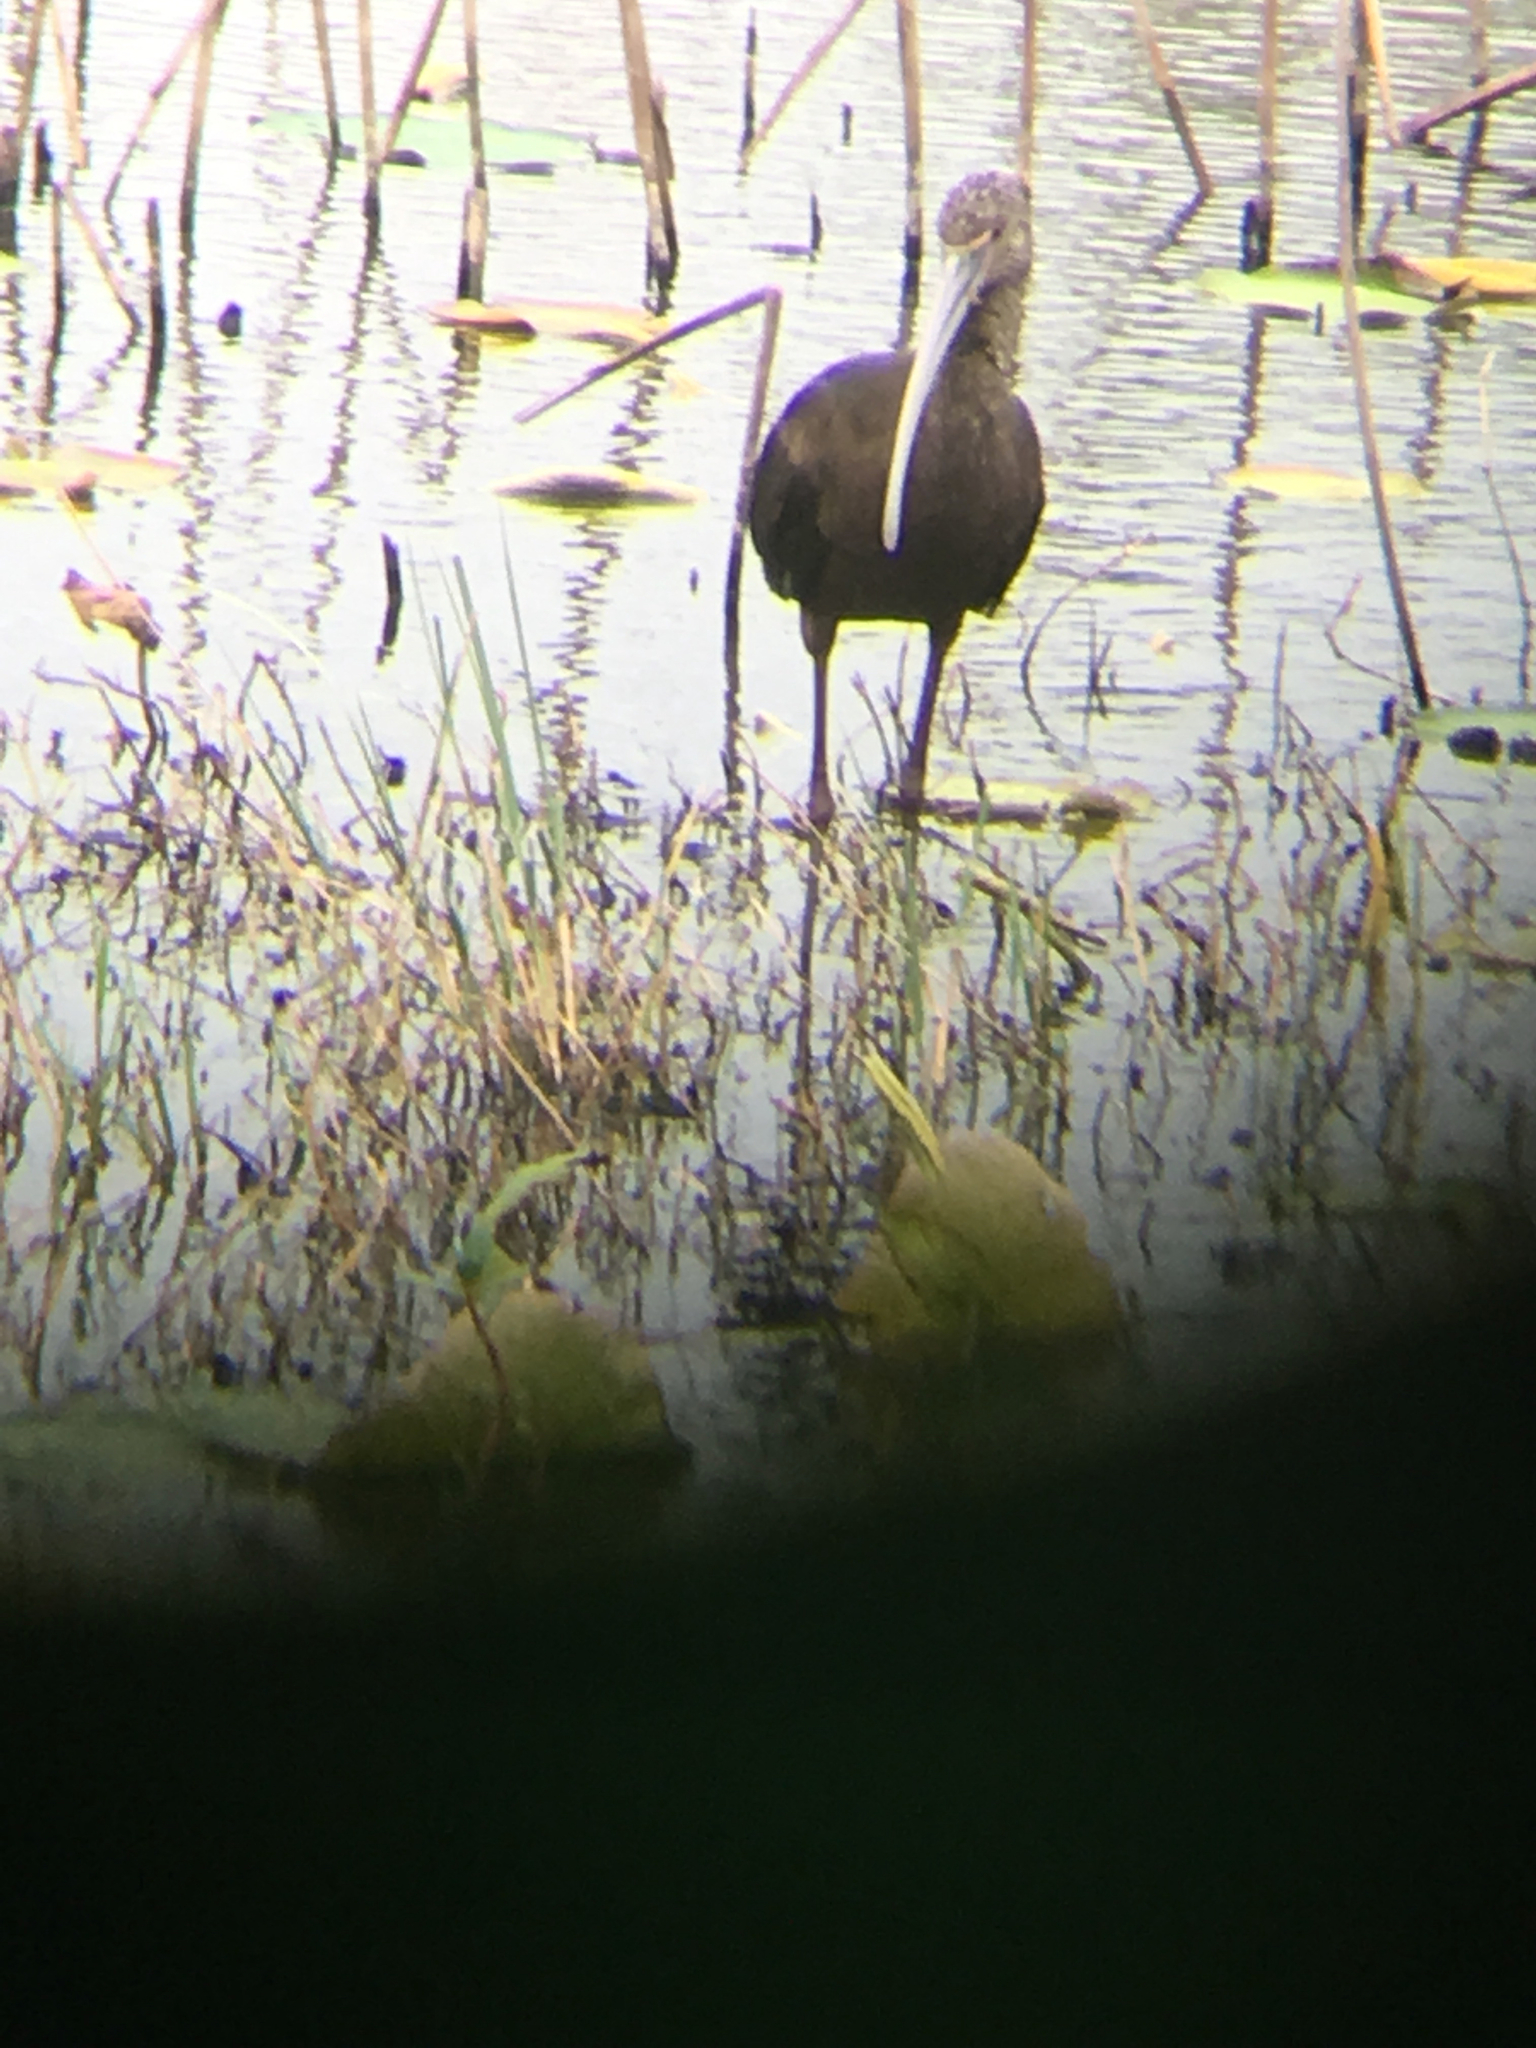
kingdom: Animalia
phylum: Chordata
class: Aves
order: Pelecaniformes
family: Threskiornithidae
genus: Plegadis
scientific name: Plegadis chihi
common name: White-faced ibis
